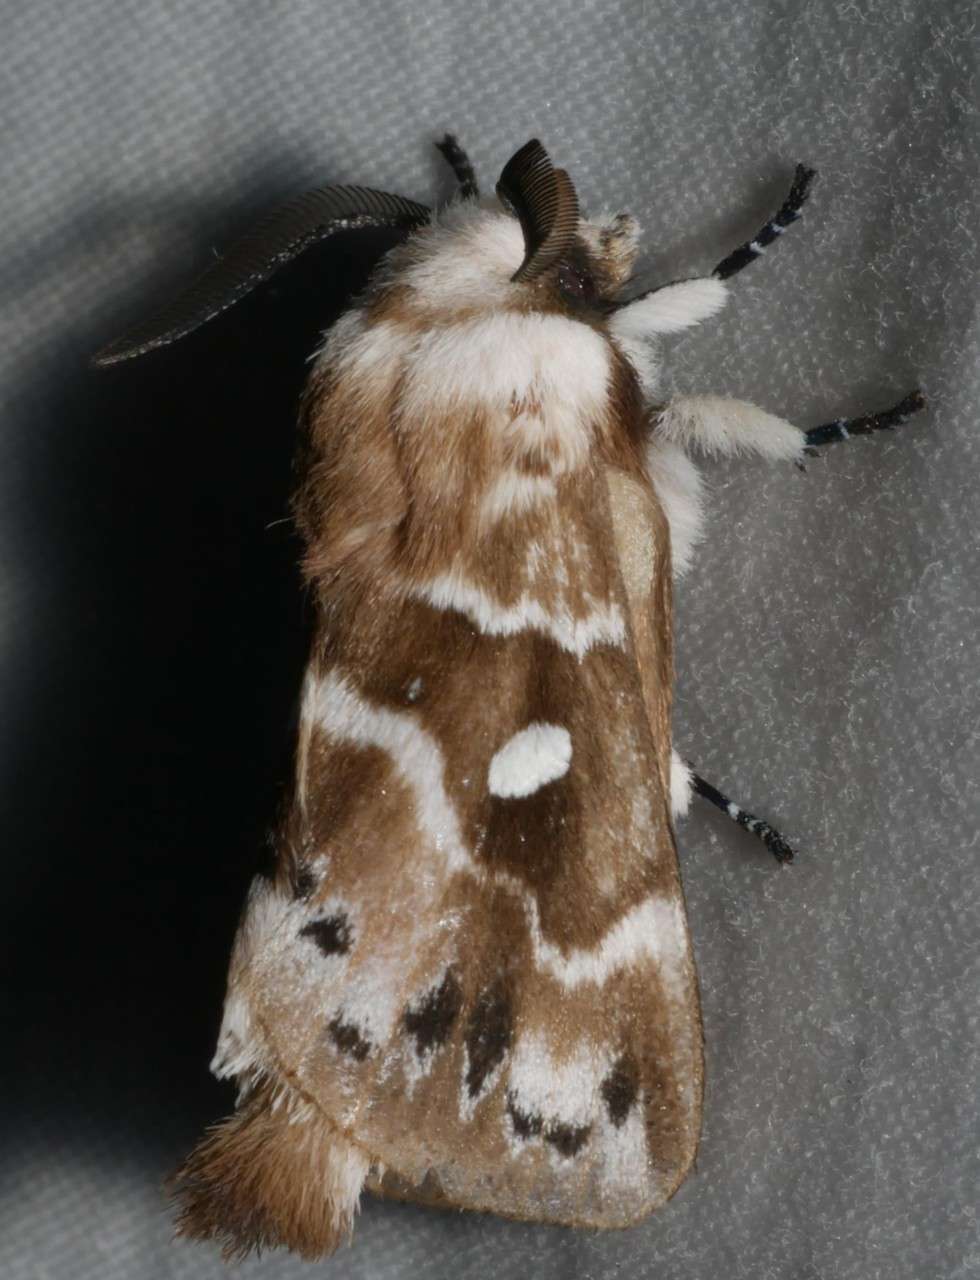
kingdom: Animalia
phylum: Arthropoda
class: Insecta
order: Lepidoptera
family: Lasiocampidae
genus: Porela
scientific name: Porela subfasciata
